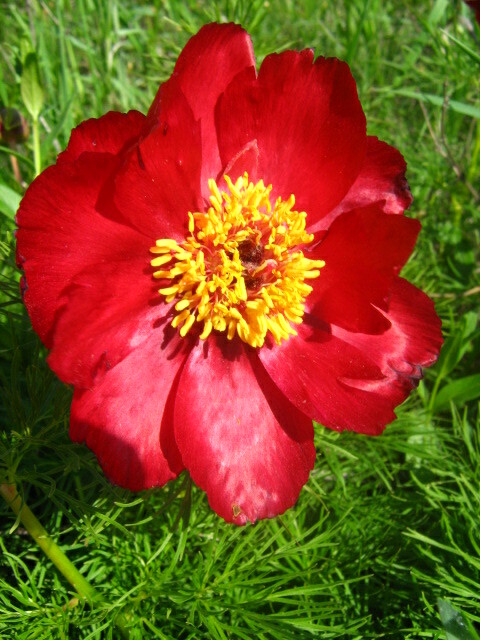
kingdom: Plantae
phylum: Tracheophyta
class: Magnoliopsida
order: Saxifragales
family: Paeoniaceae
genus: Paeonia
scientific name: Paeonia tenuifolia
